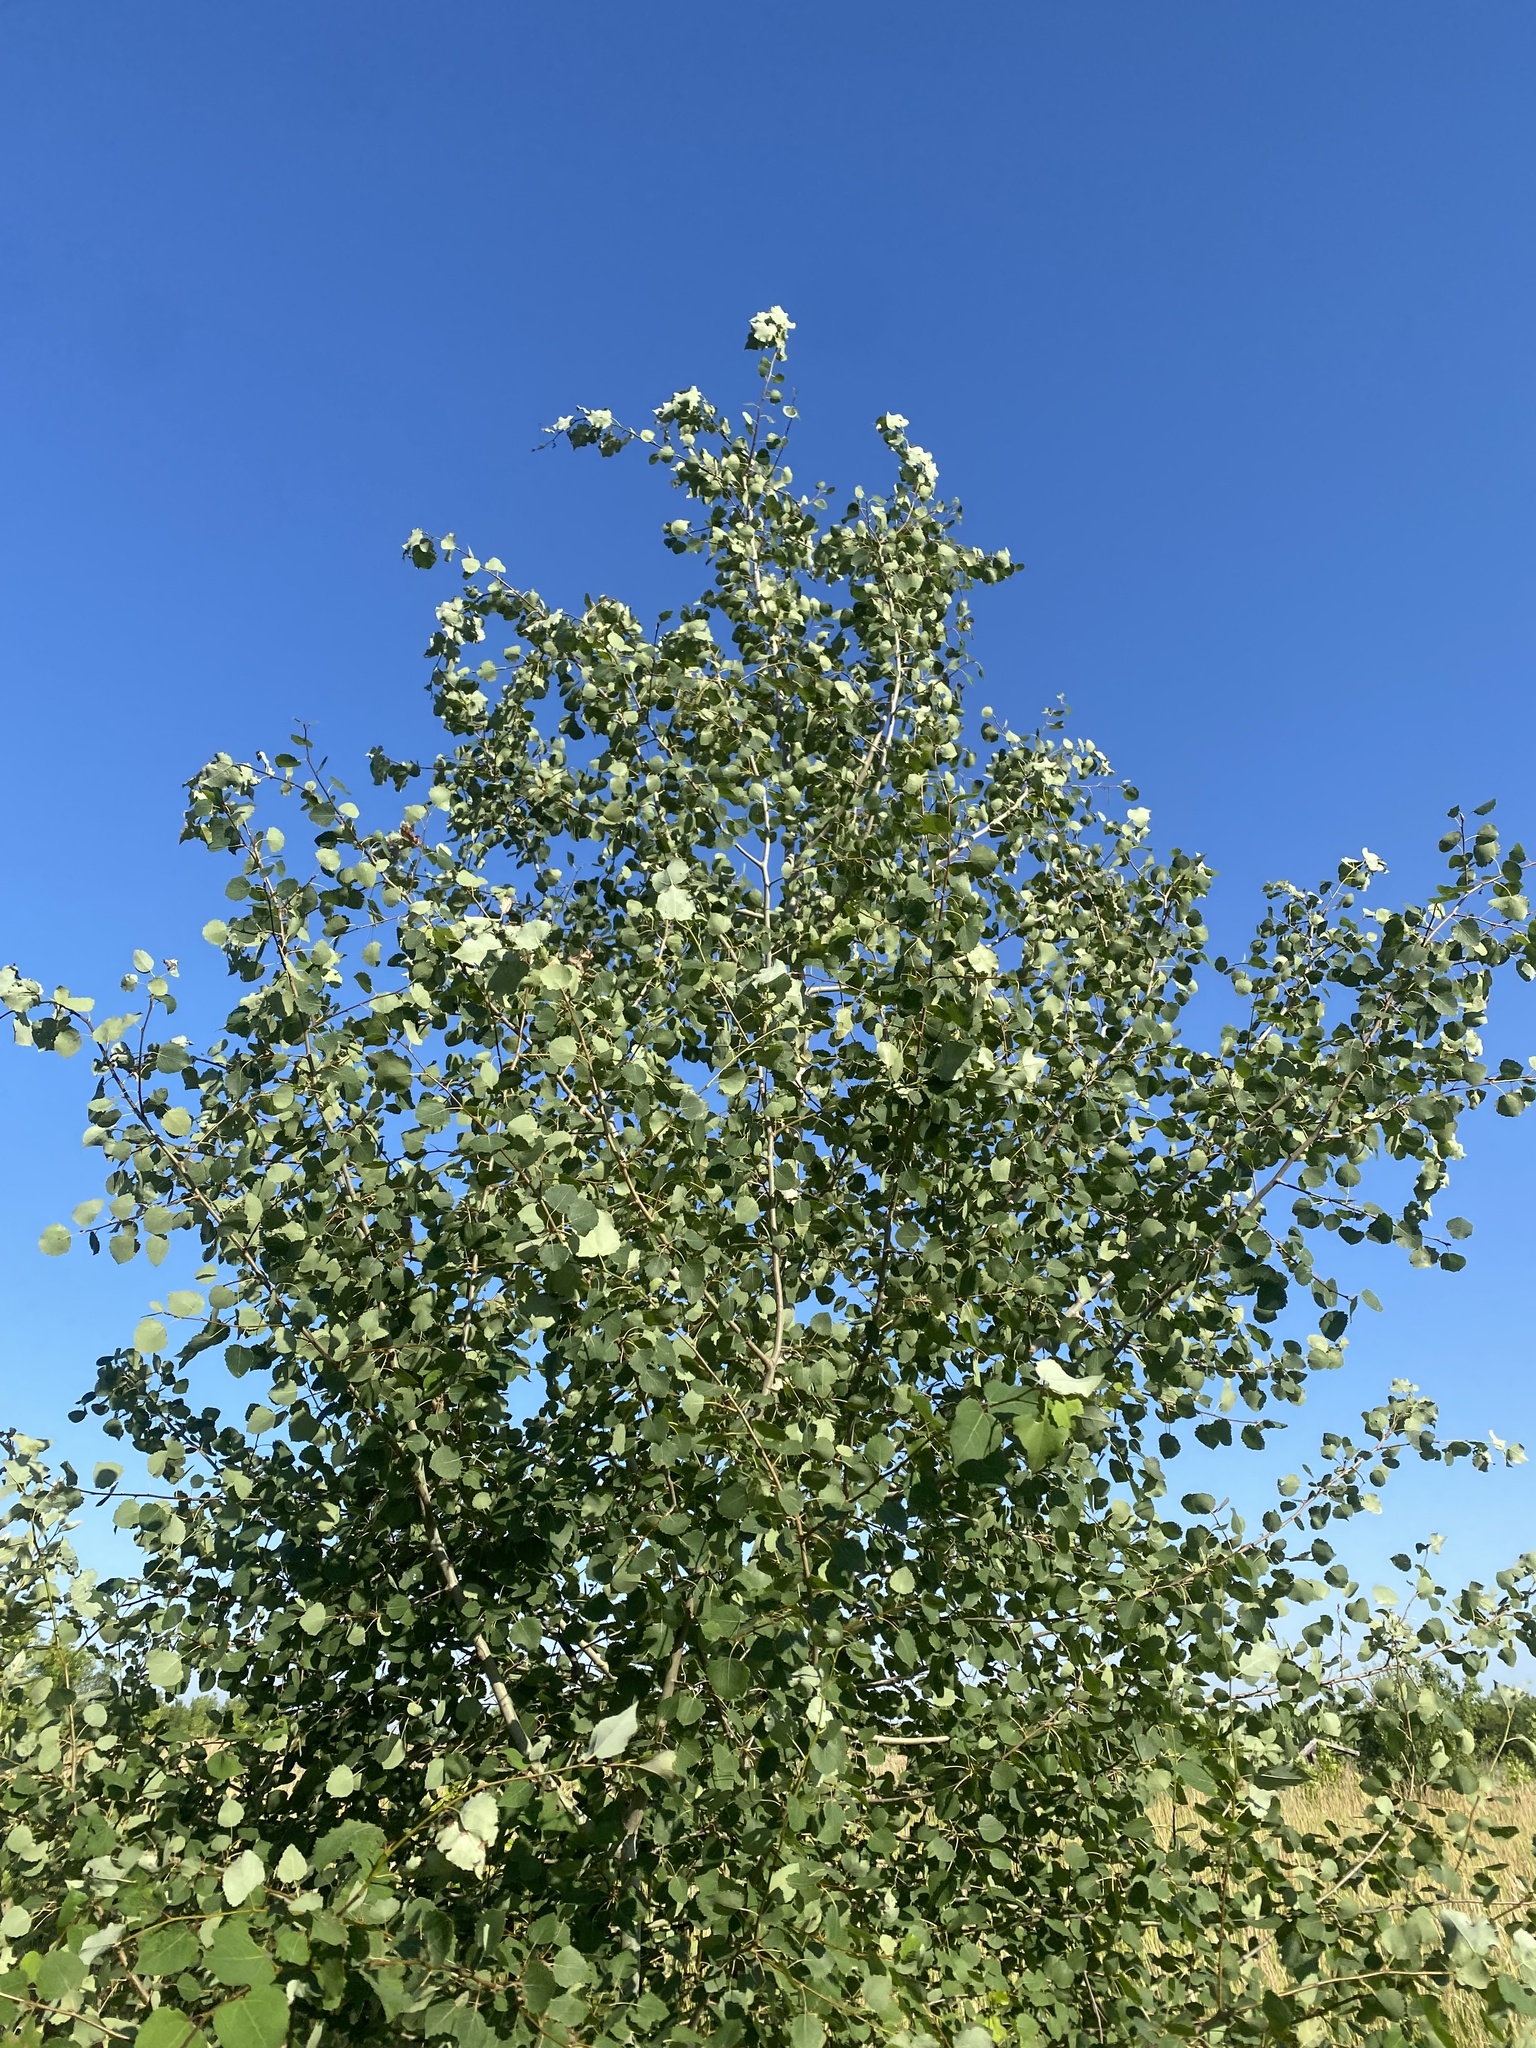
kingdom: Plantae
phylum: Tracheophyta
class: Magnoliopsida
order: Malpighiales
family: Salicaceae
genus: Populus
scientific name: Populus tremula
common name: European aspen
